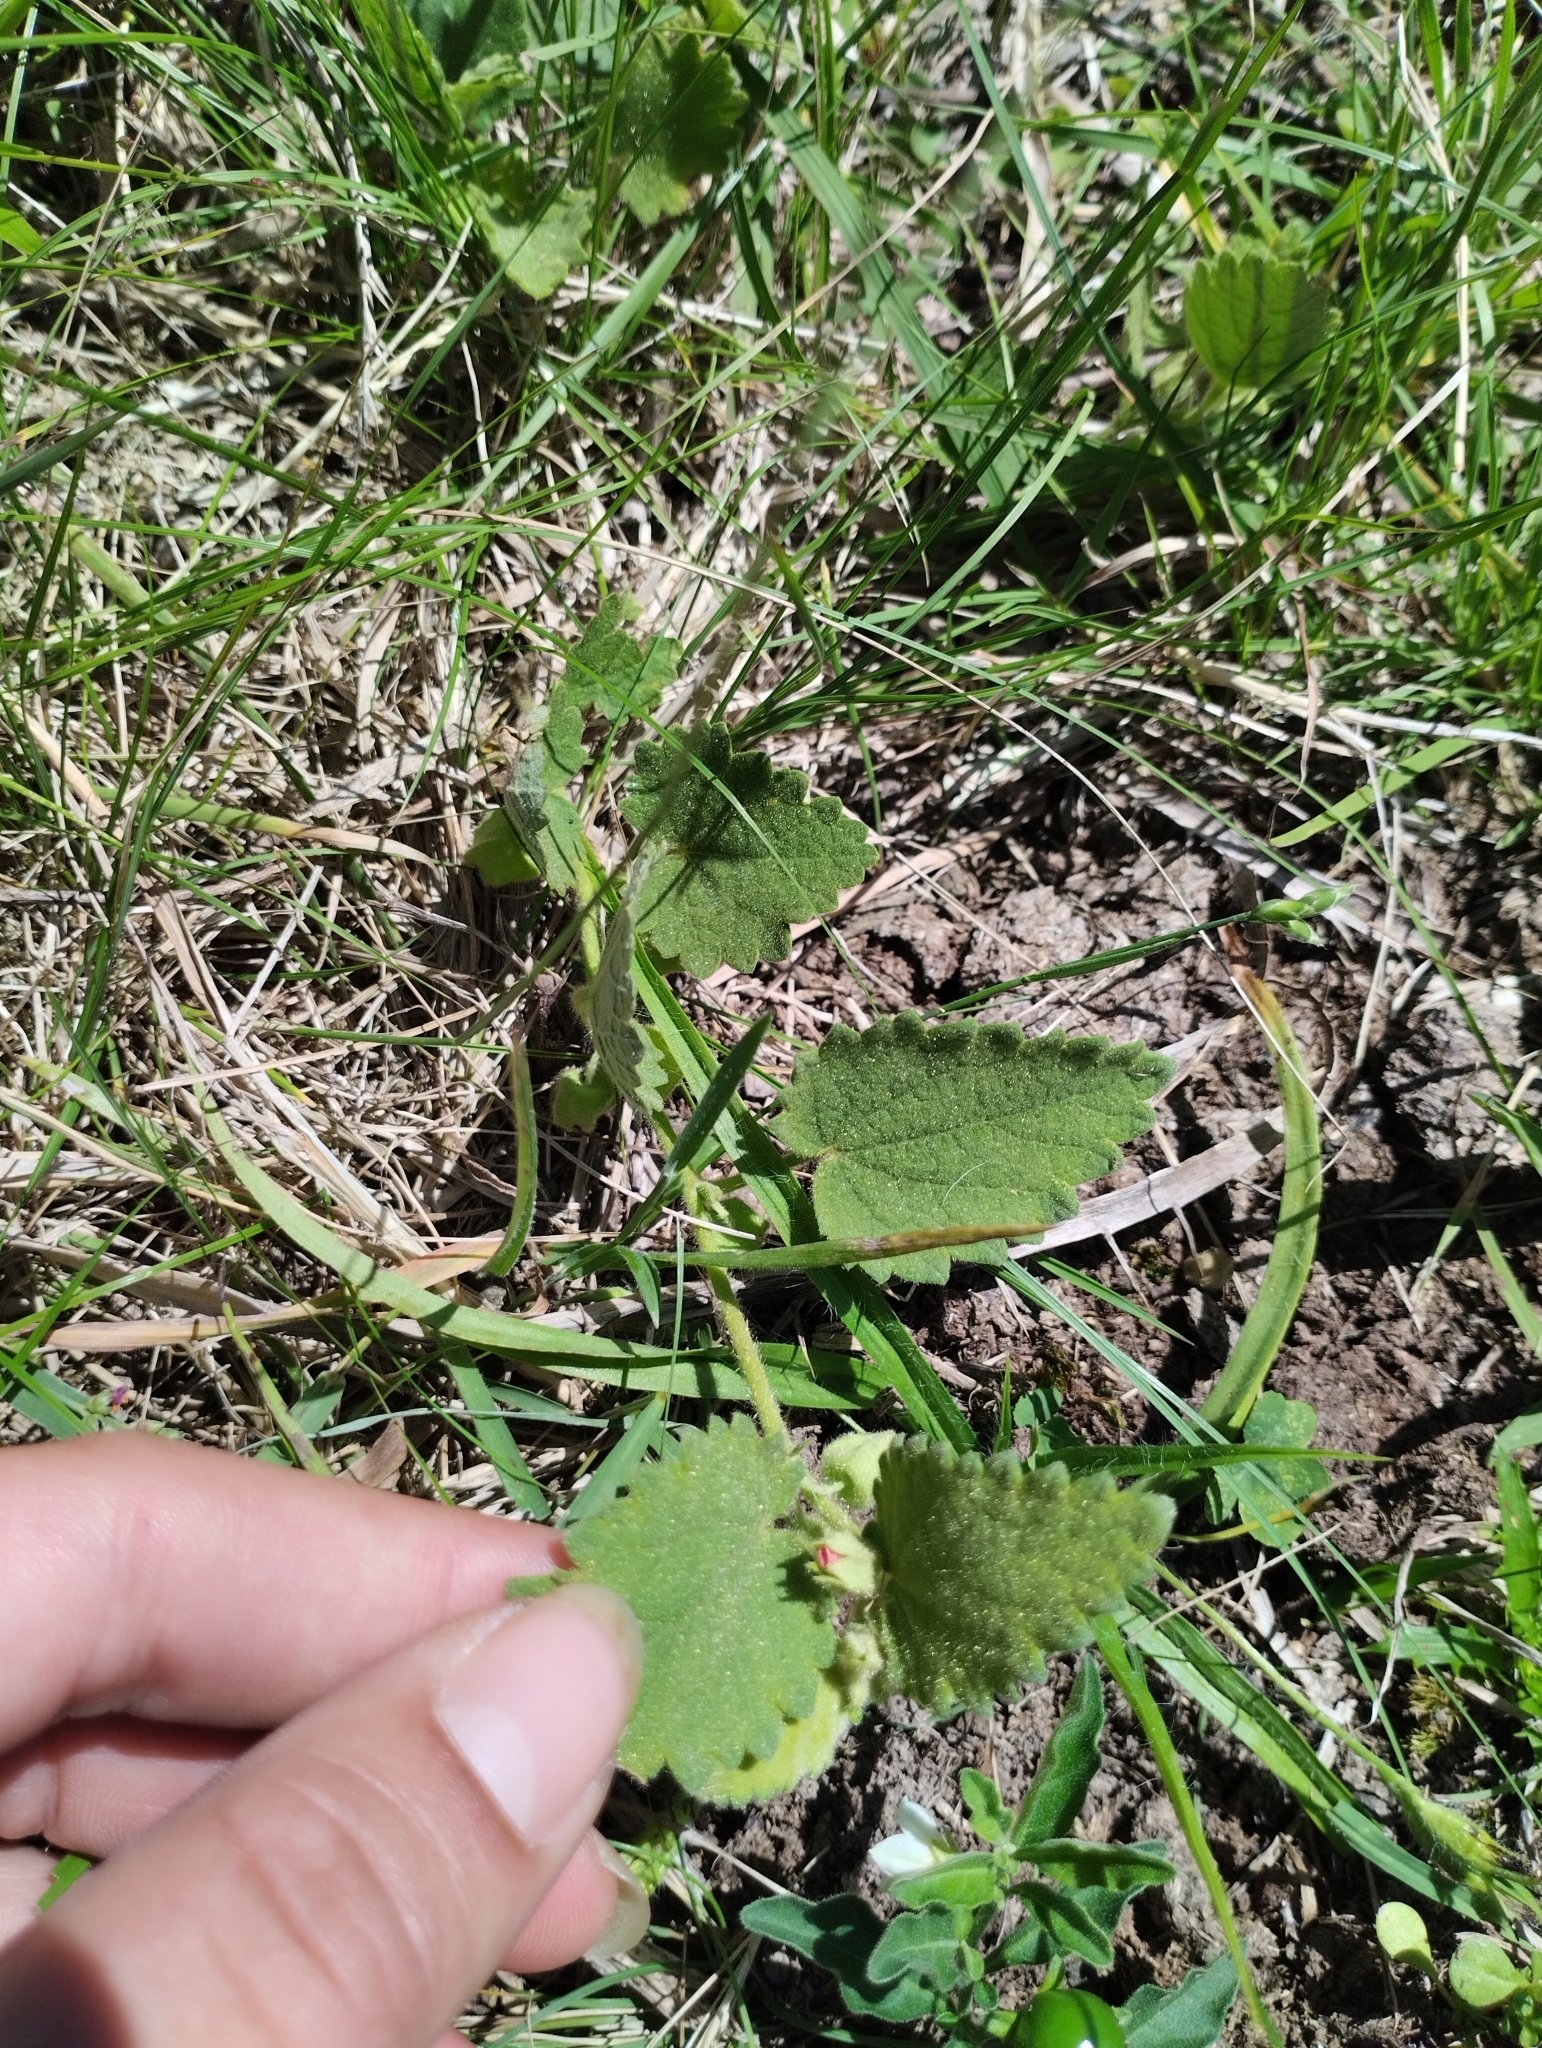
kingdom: Plantae
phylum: Tracheophyta
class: Magnoliopsida
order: Malvales
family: Malvaceae
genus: Krapovickasia
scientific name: Krapovickasia flavescens
